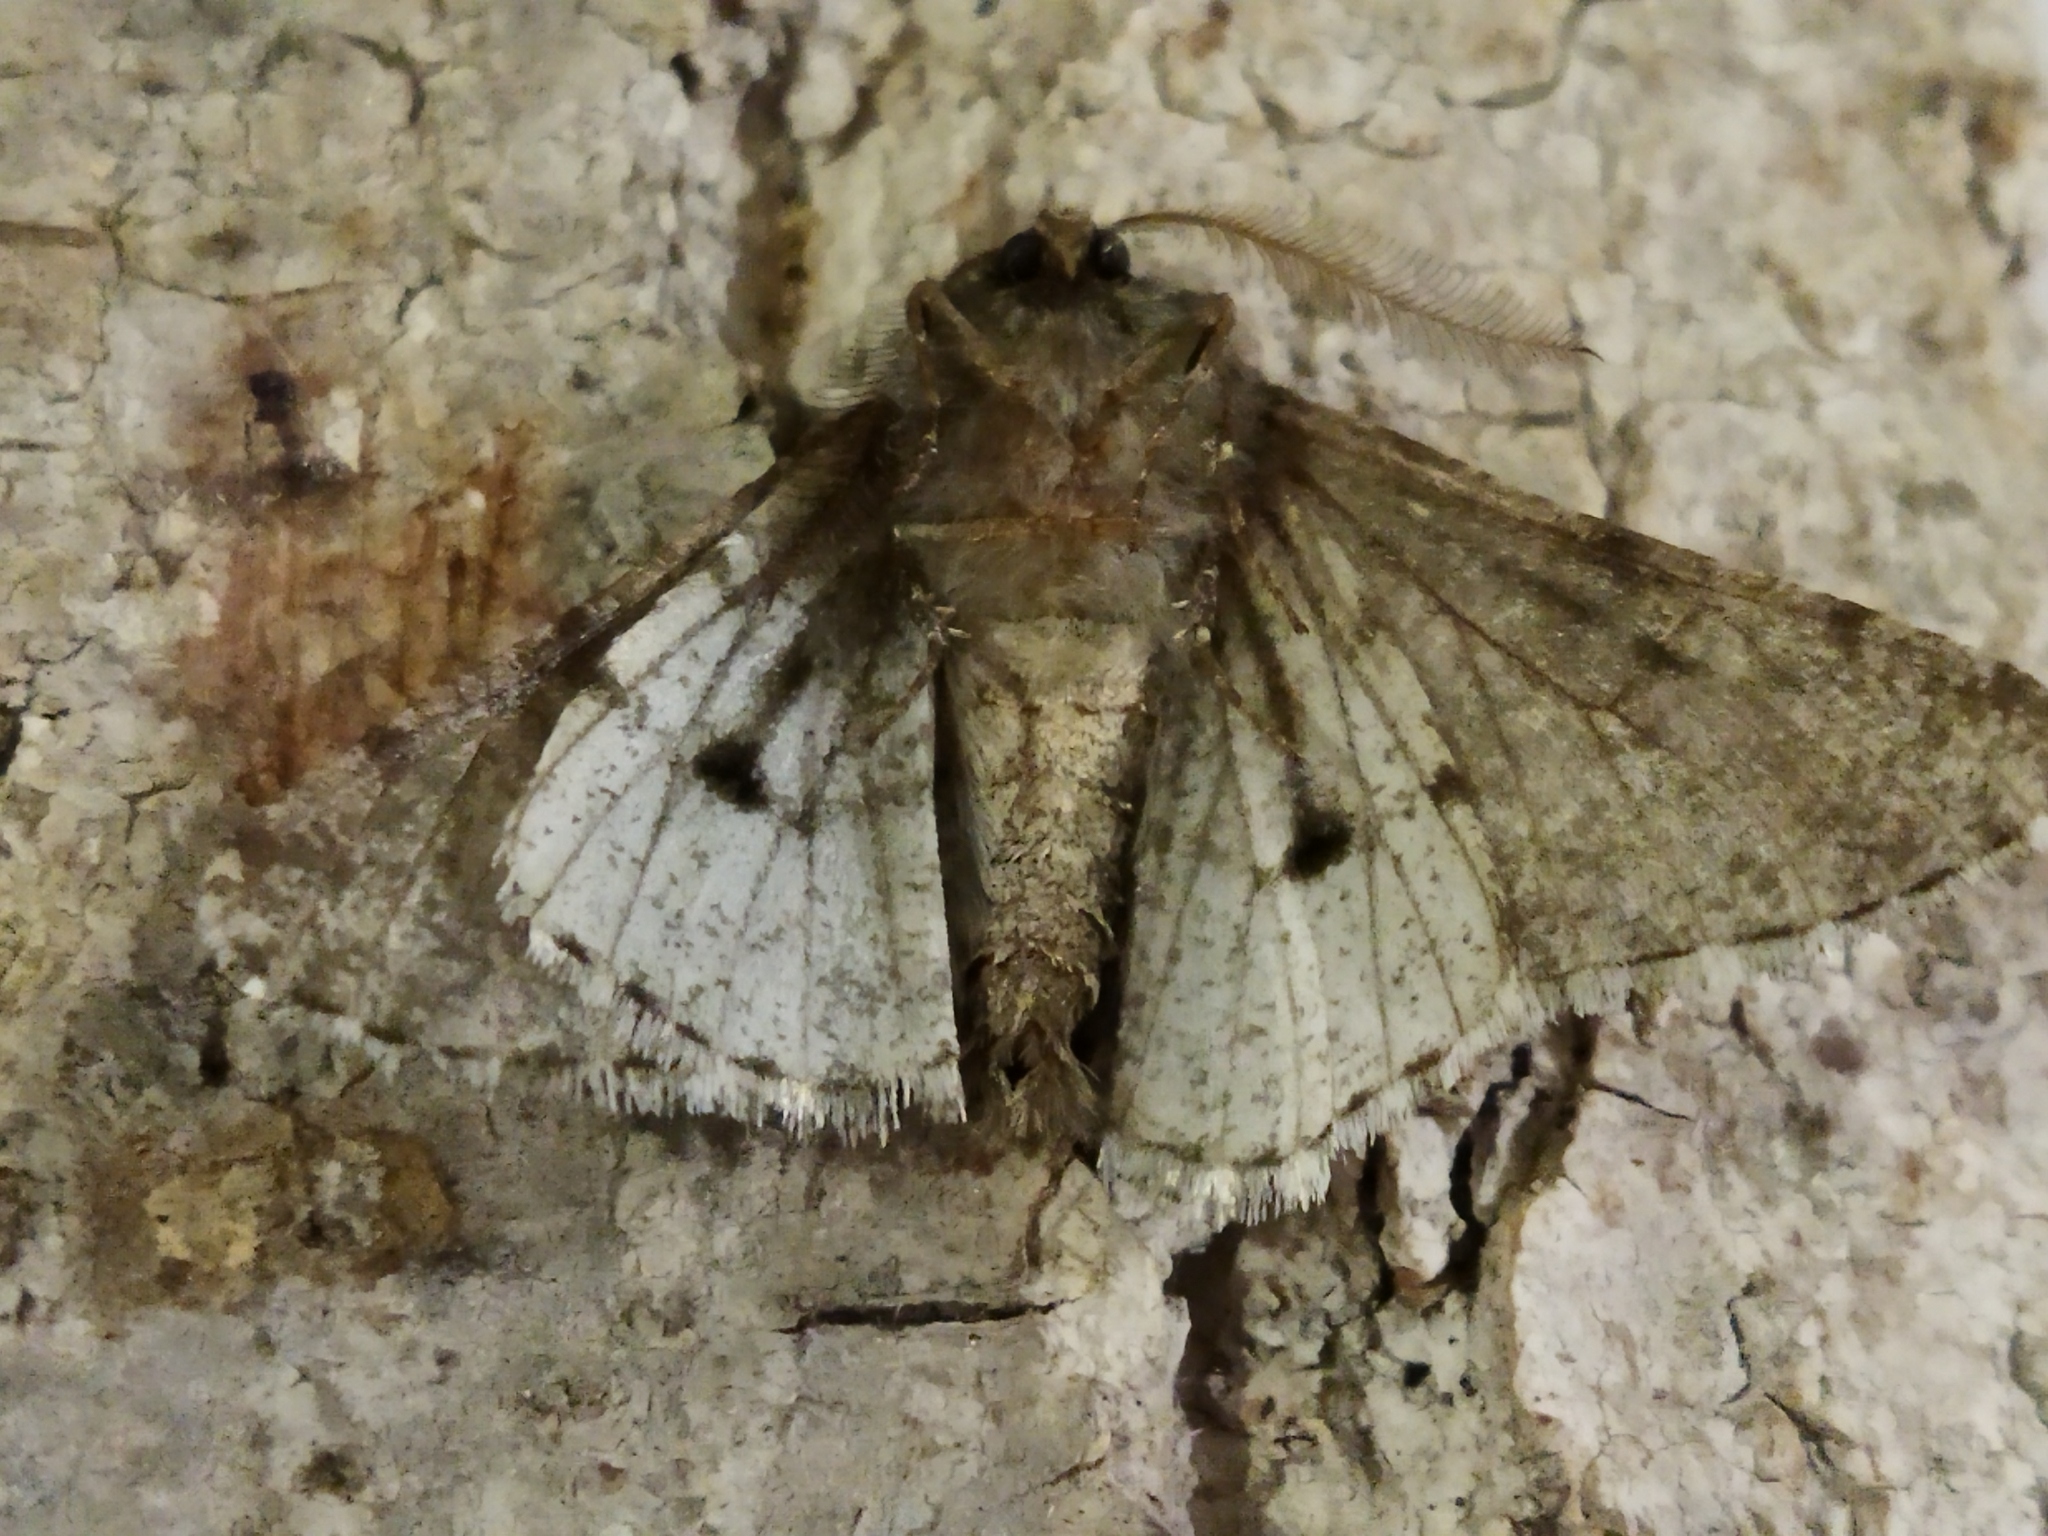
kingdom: Animalia
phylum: Arthropoda
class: Insecta
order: Lepidoptera
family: Geometridae
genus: Phigalia
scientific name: Phigalia pilosaria
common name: Pale brindled beauty
